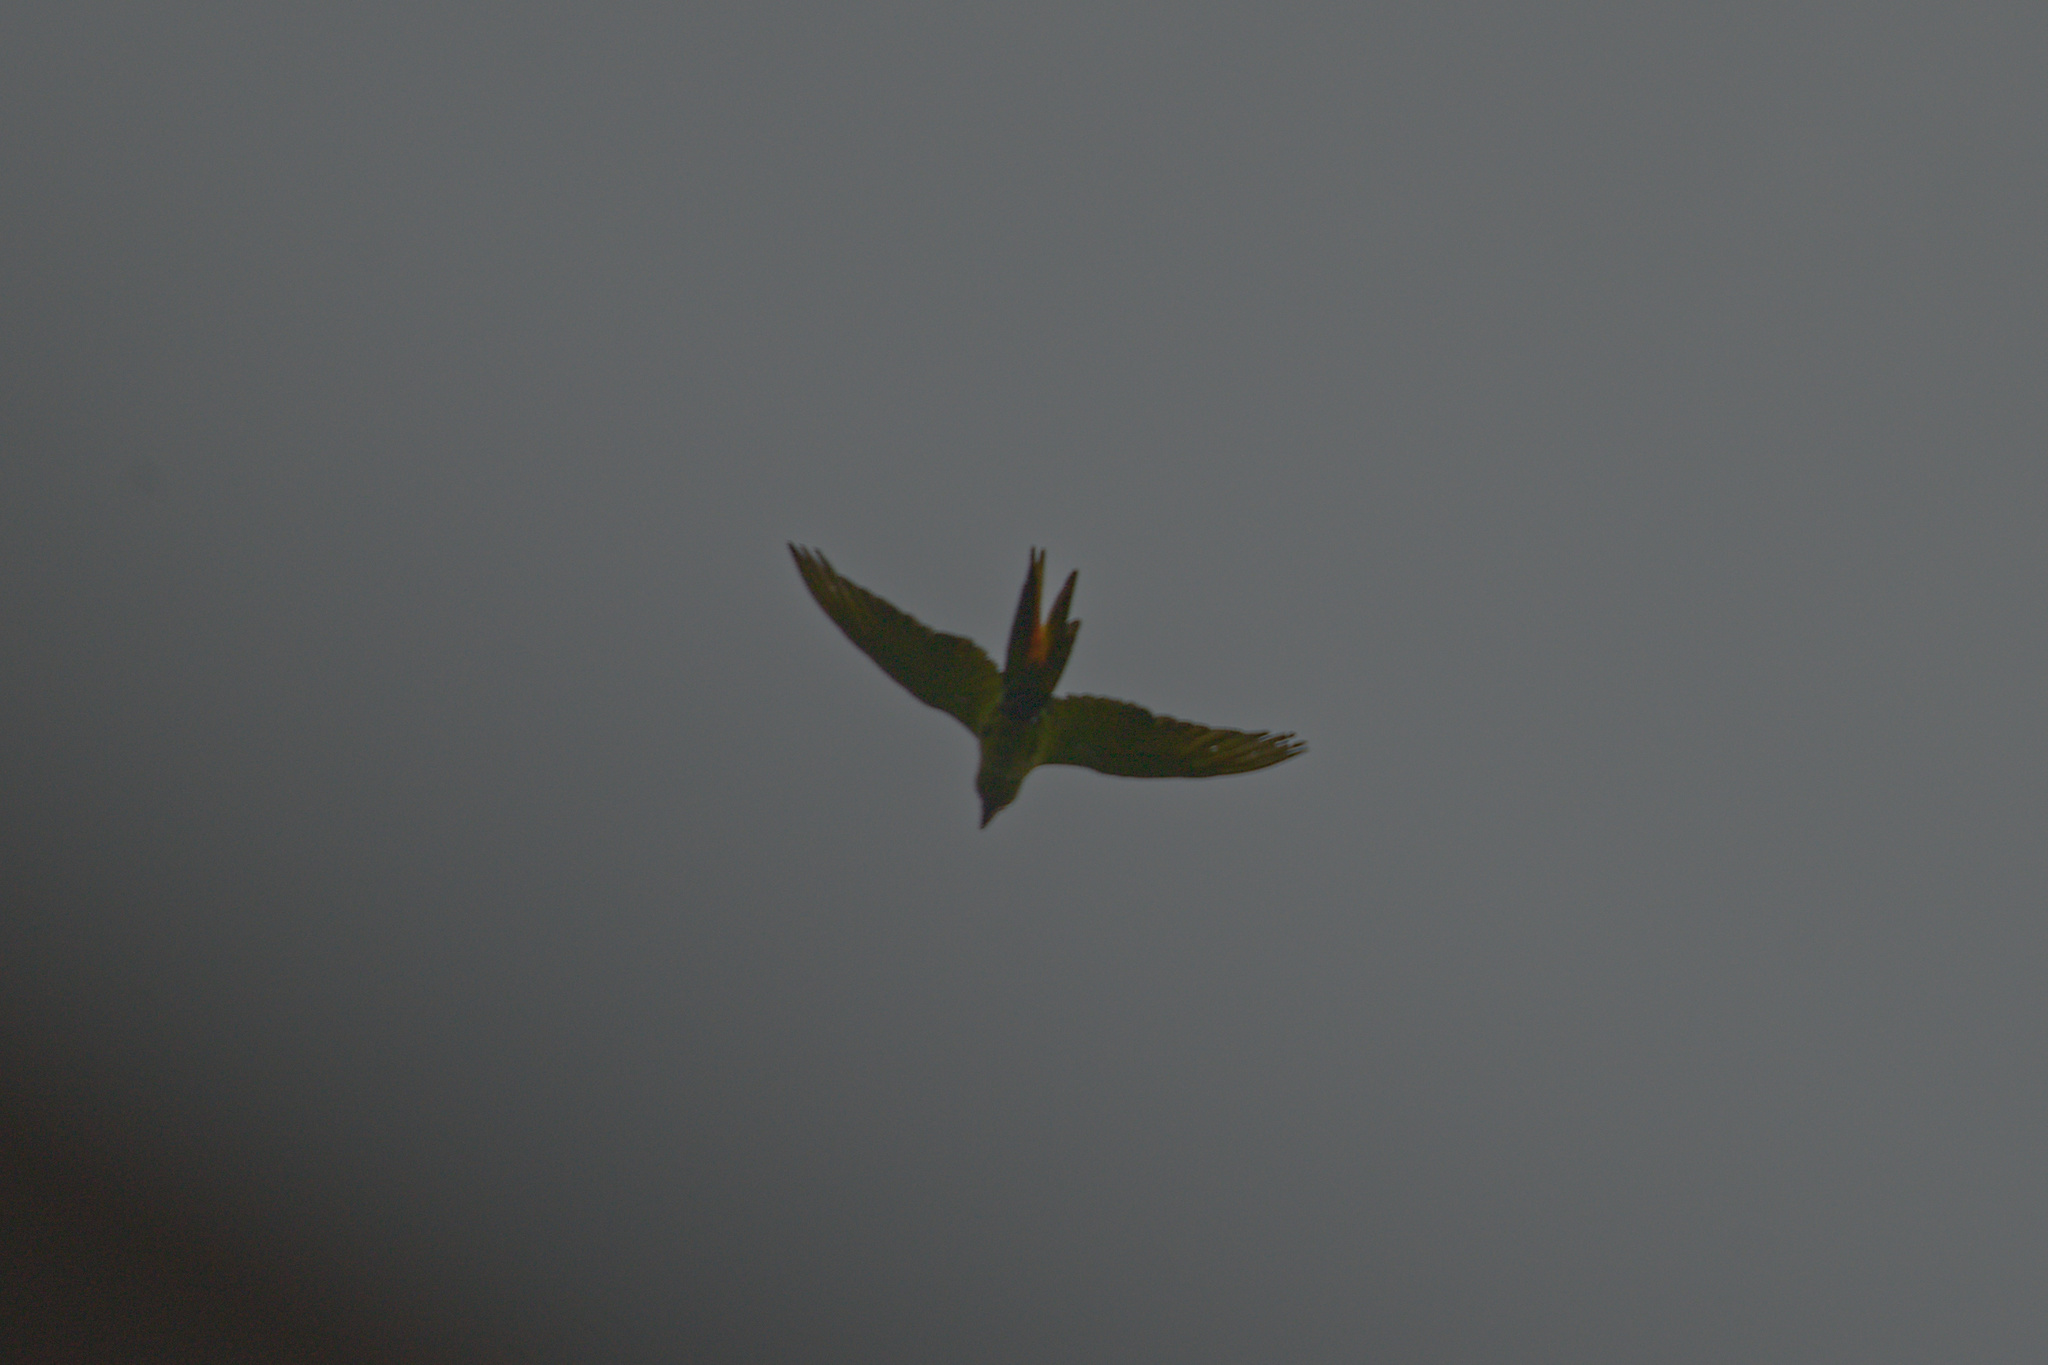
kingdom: Animalia
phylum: Chordata
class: Aves
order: Psittaciformes
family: Psittacidae
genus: Ara
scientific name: Ara ambiguus
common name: Great green macaw
